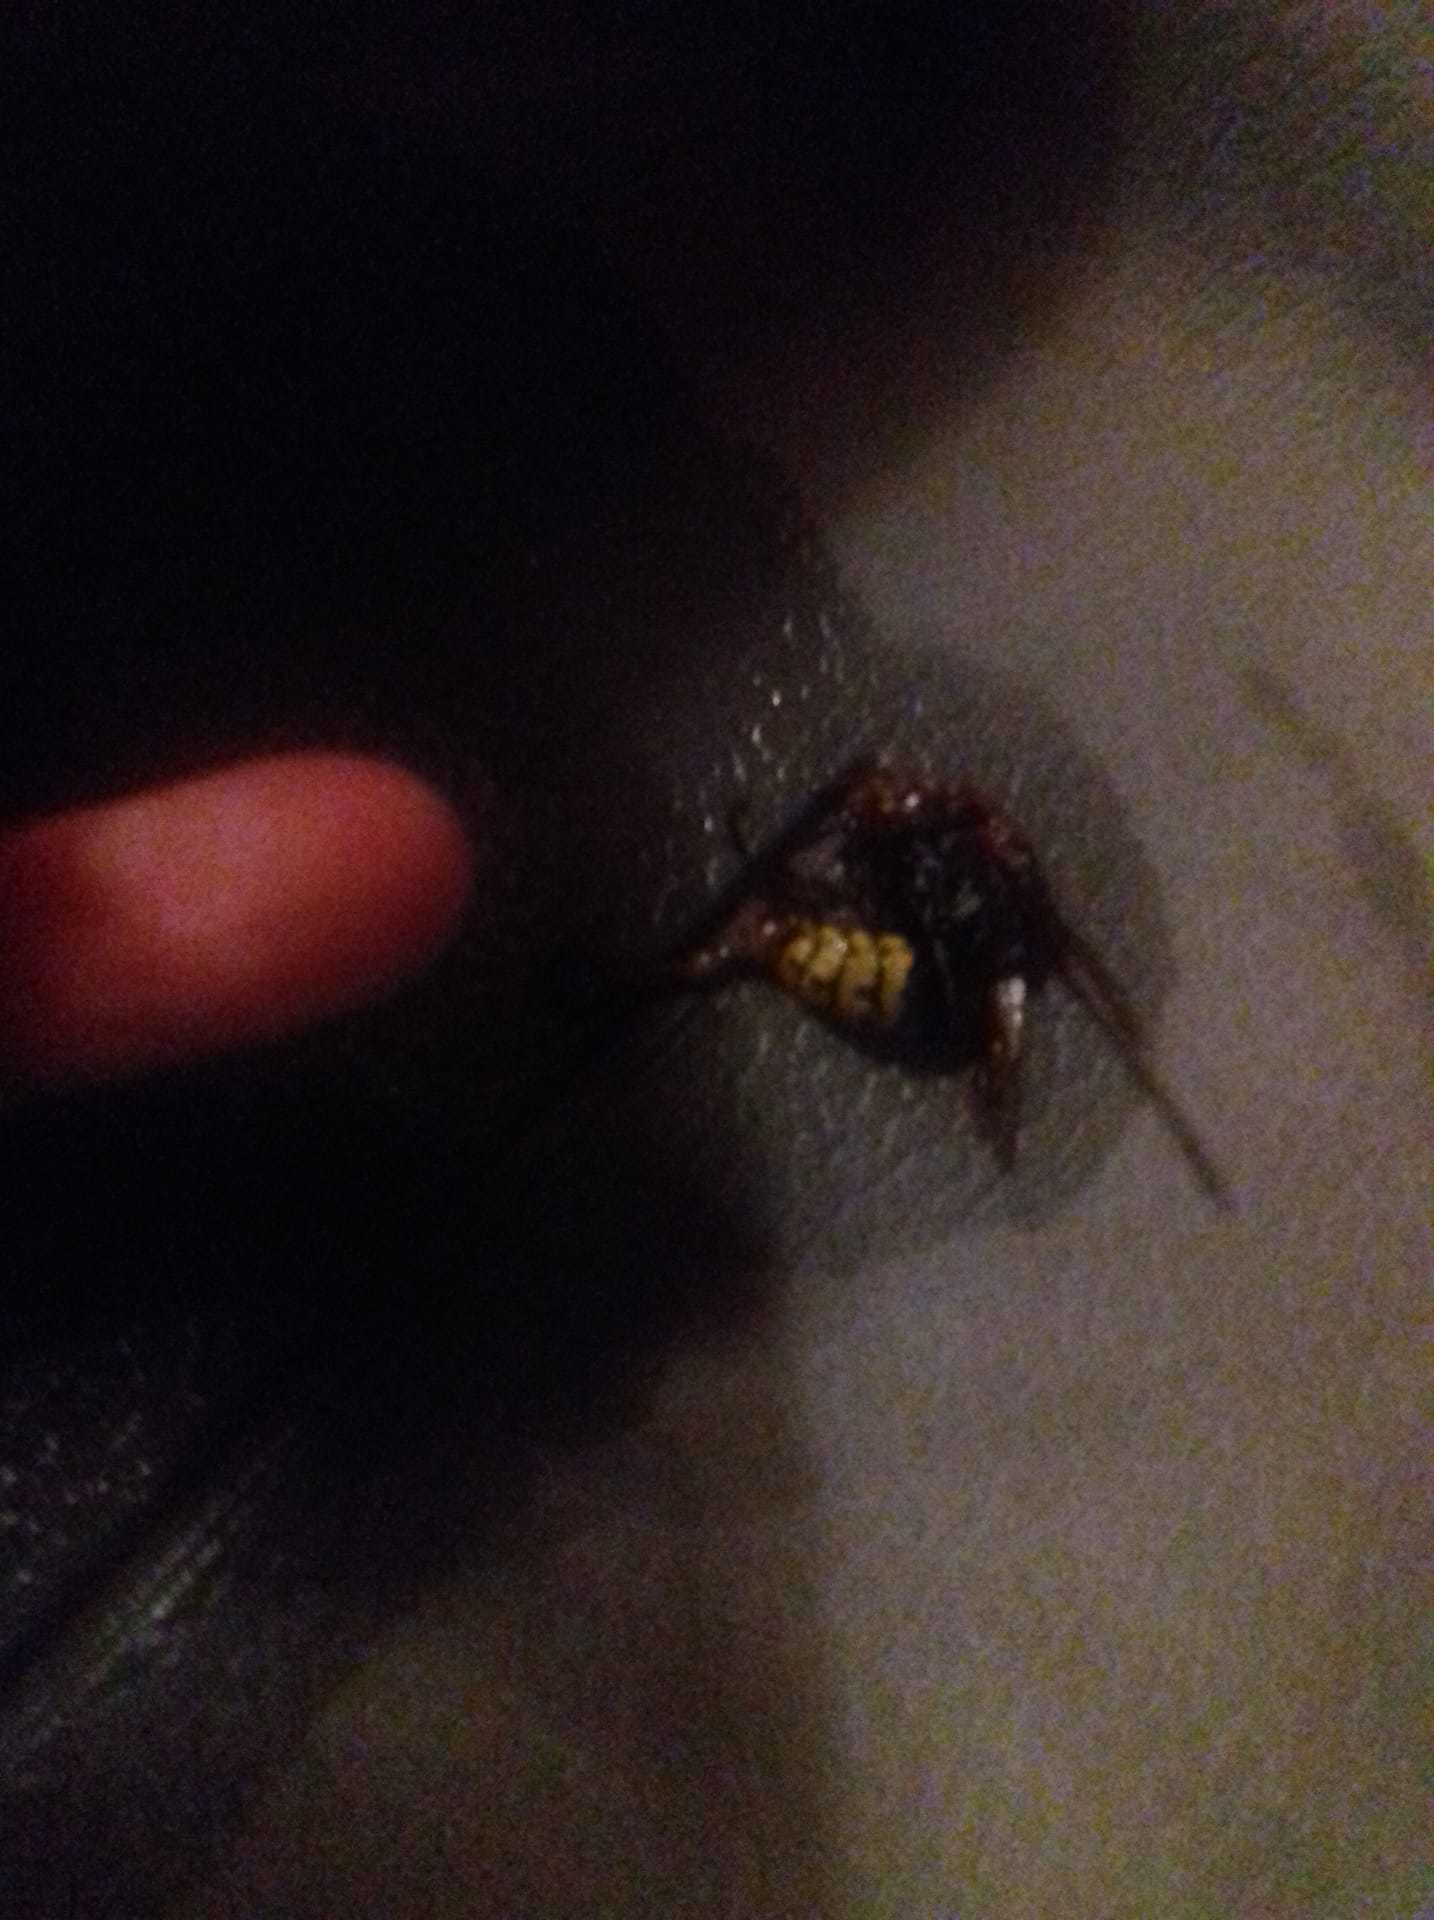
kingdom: Animalia
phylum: Arthropoda
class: Insecta
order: Hymenoptera
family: Vespidae
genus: Vespa
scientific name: Vespa crabro
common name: Hornet
